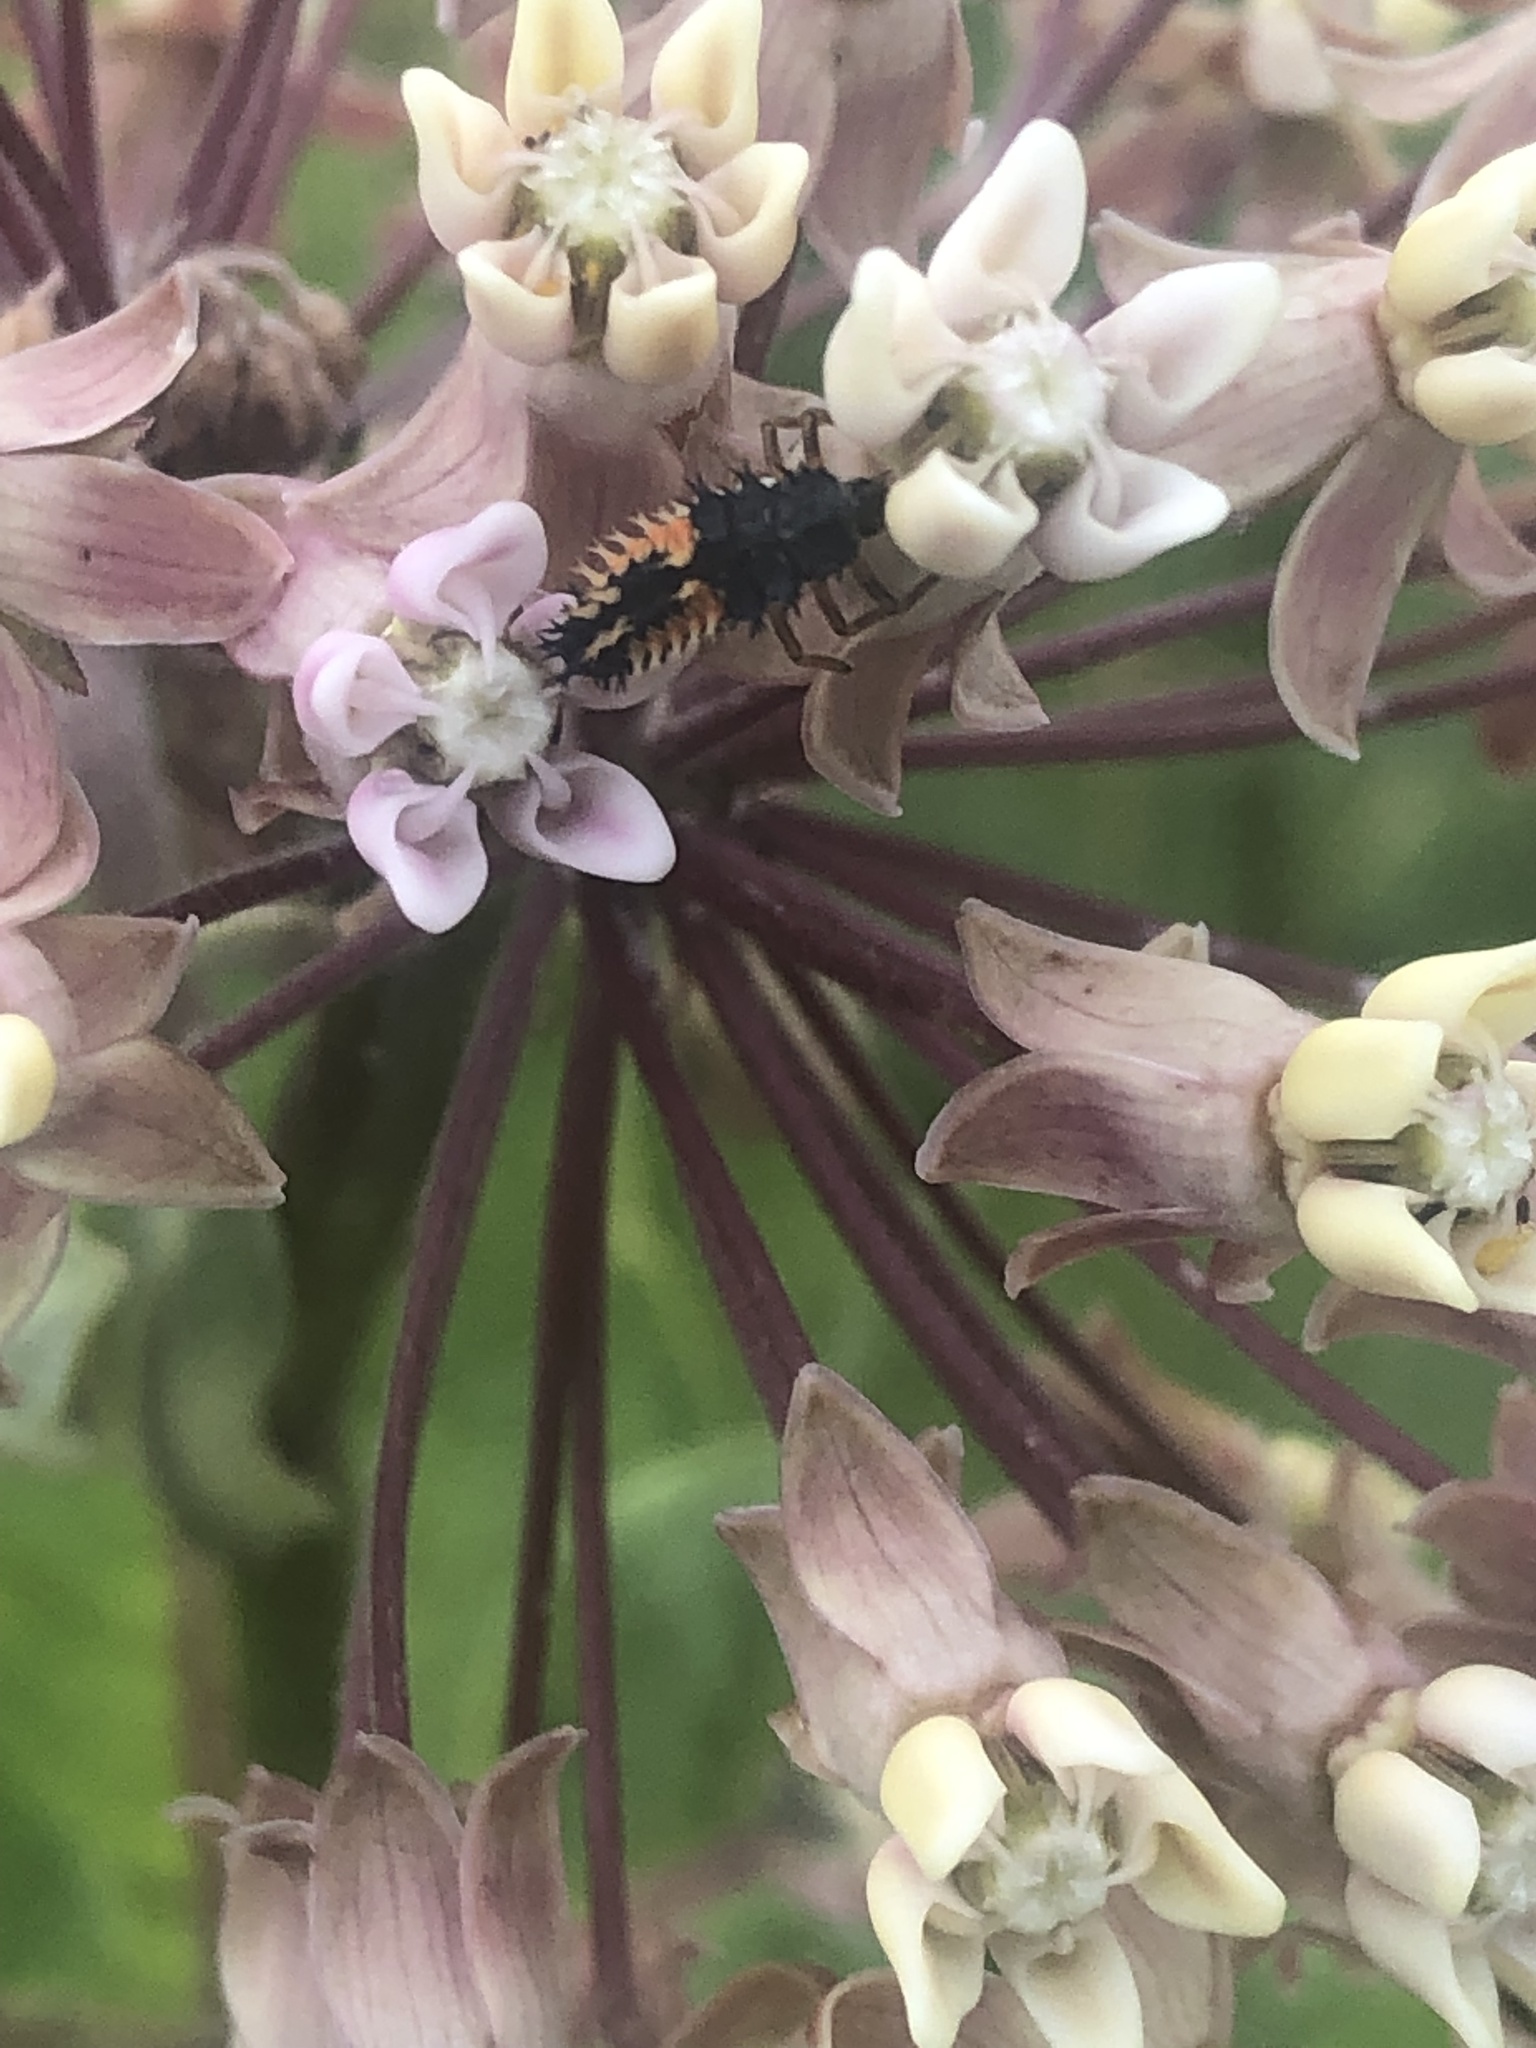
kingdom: Animalia
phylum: Arthropoda
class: Insecta
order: Coleoptera
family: Coccinellidae
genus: Harmonia
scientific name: Harmonia axyridis
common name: Harlequin ladybird
